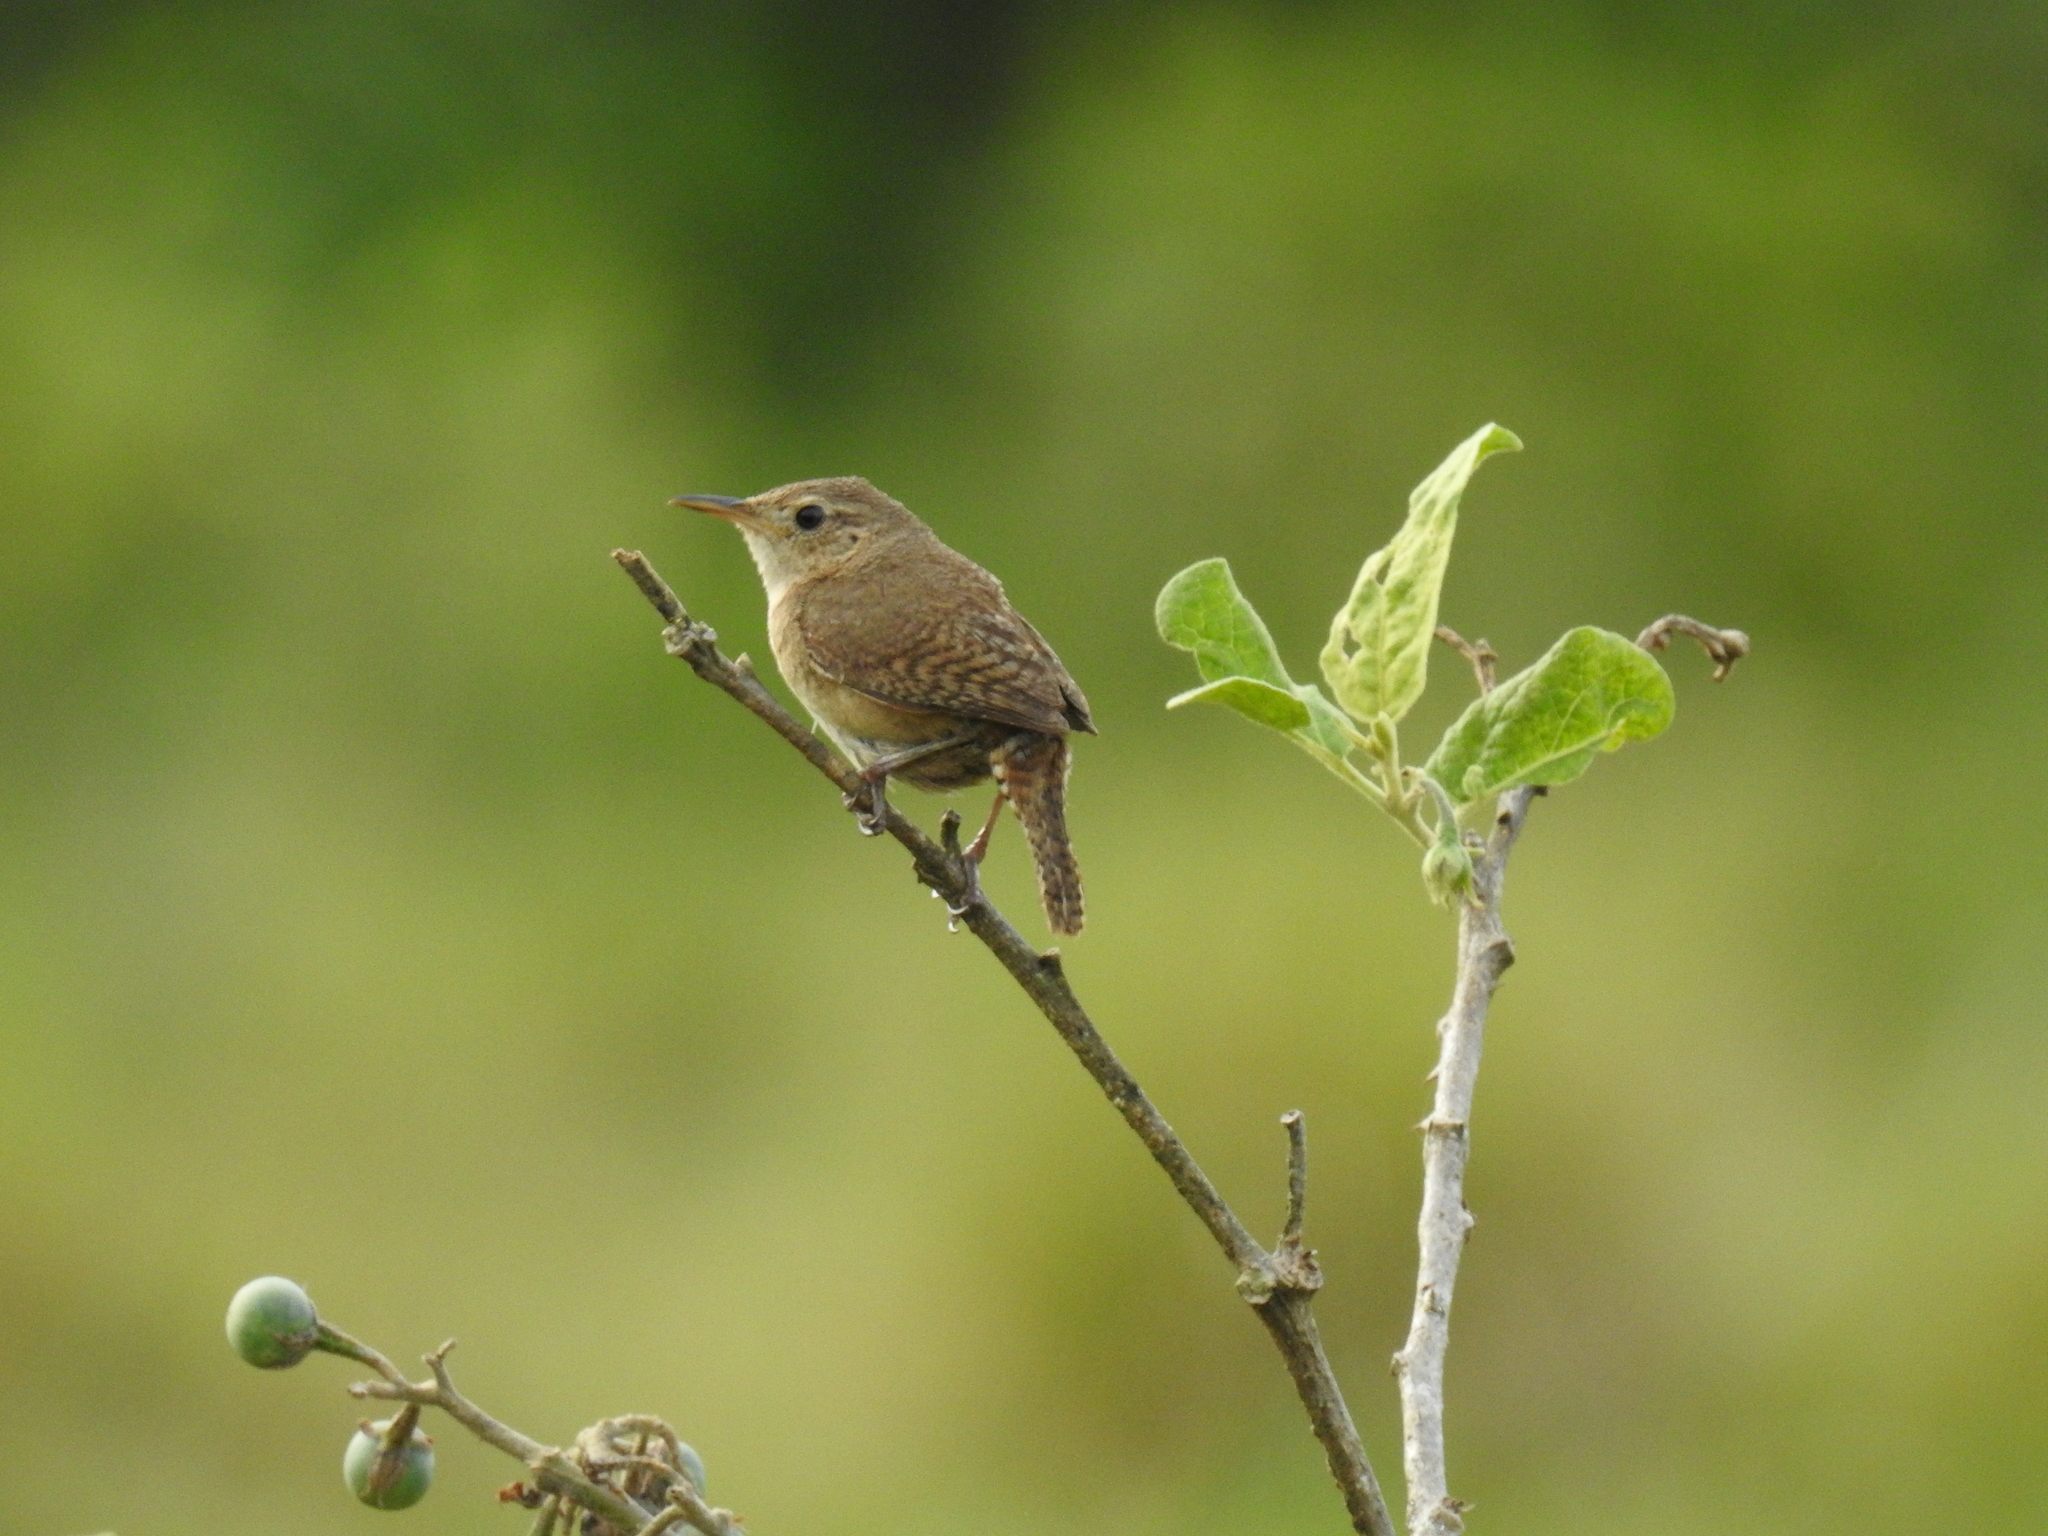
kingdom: Animalia
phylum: Chordata
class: Aves
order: Passeriformes
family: Troglodytidae
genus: Troglodytes
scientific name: Troglodytes aedon
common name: House wren
